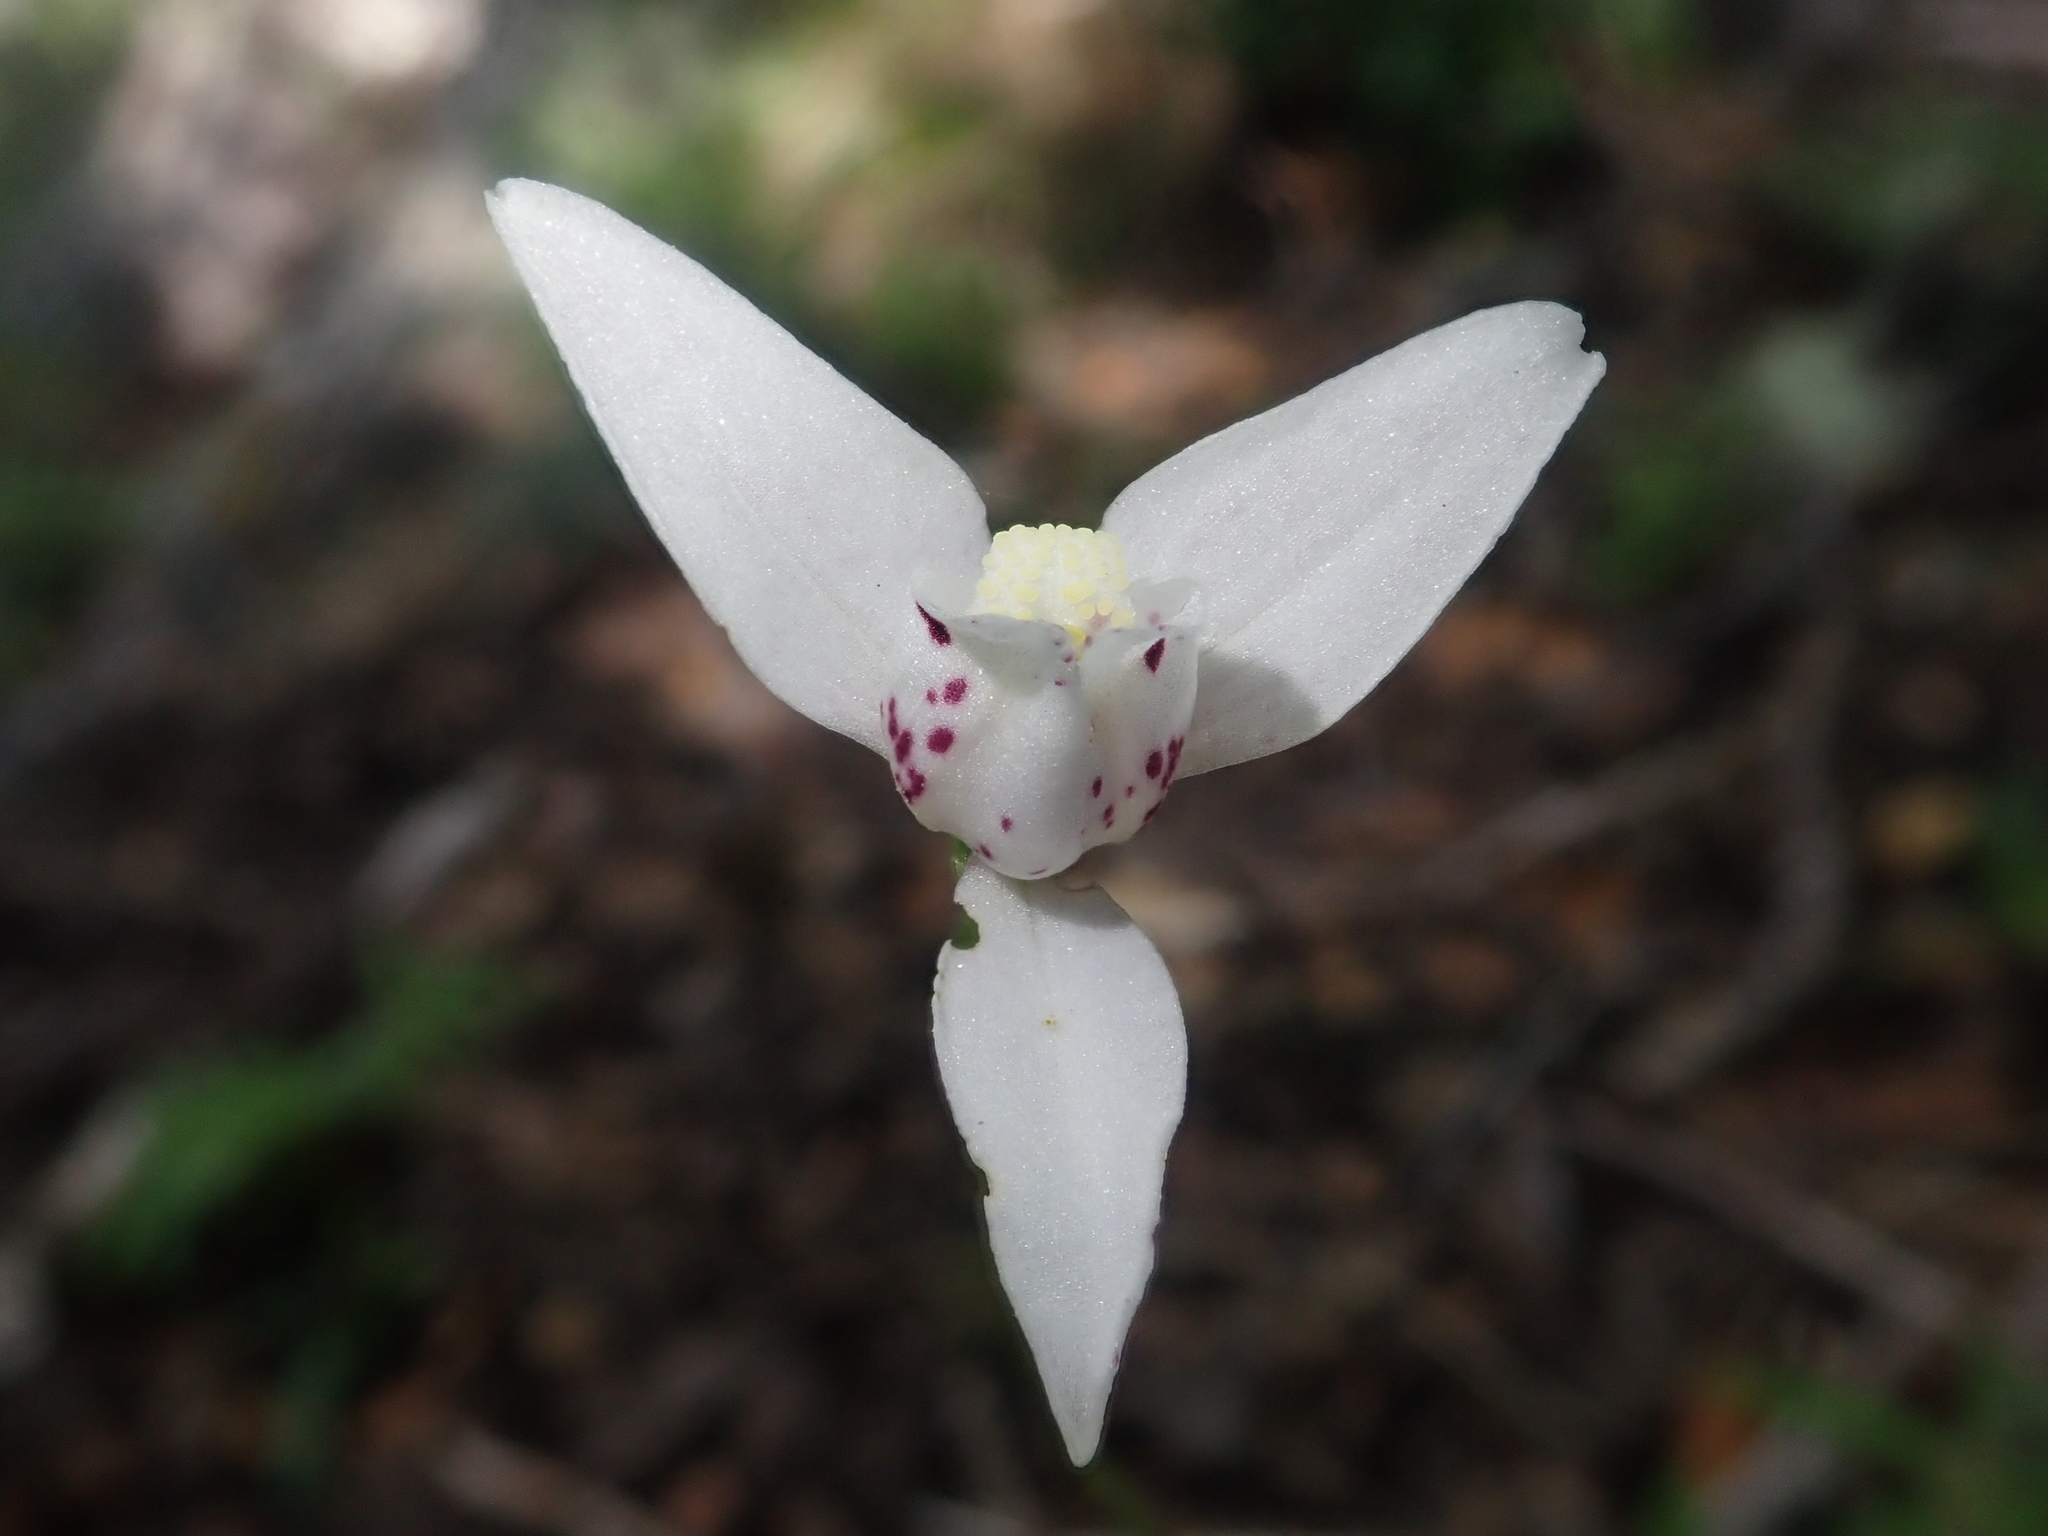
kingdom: Plantae
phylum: Tracheophyta
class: Liliopsida
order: Asparagales
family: Orchidaceae
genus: Codonorchis
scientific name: Codonorchis lessonii
